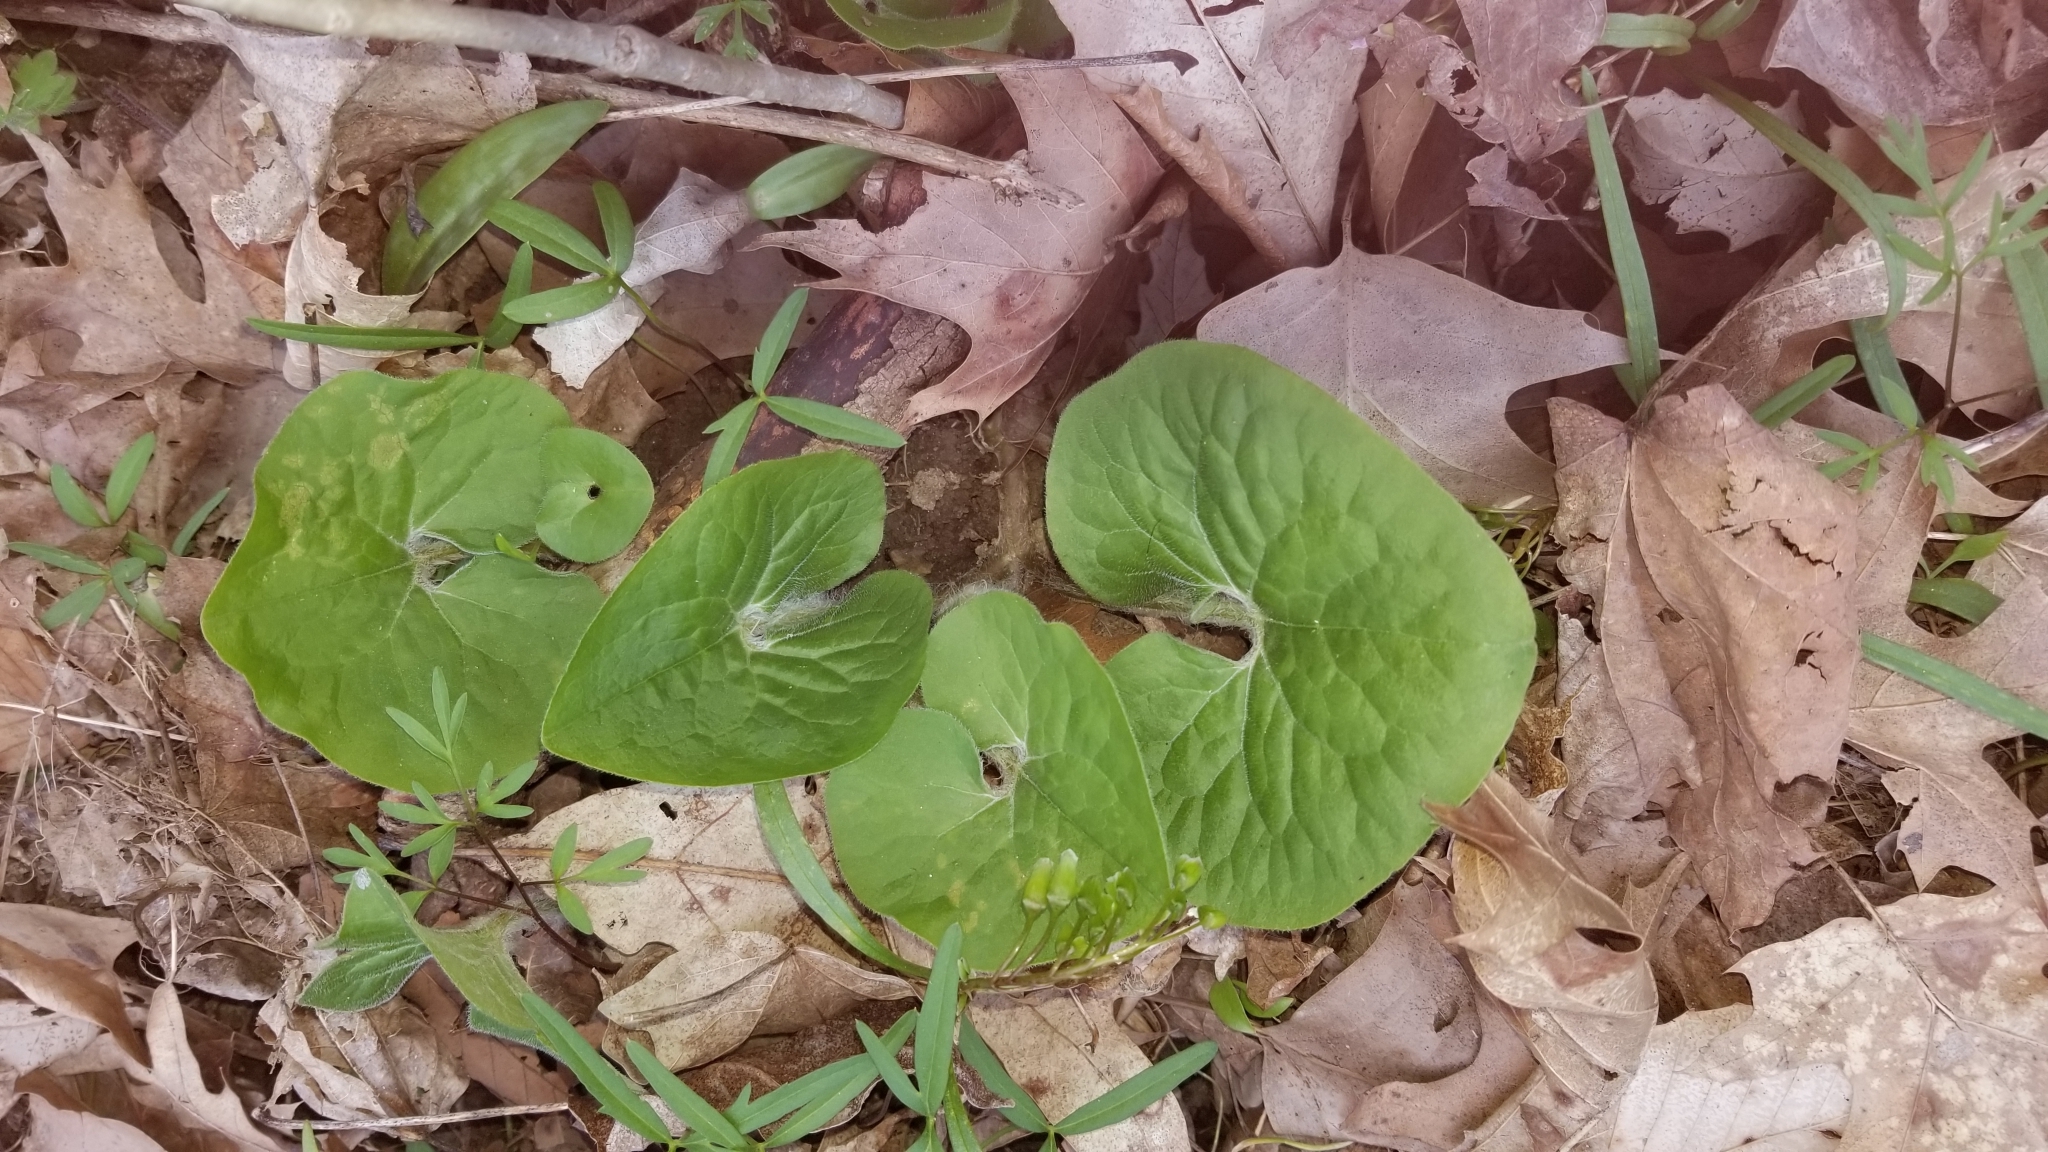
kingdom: Plantae
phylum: Tracheophyta
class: Magnoliopsida
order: Piperales
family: Aristolochiaceae
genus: Asarum
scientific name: Asarum canadense
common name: Wild ginger
